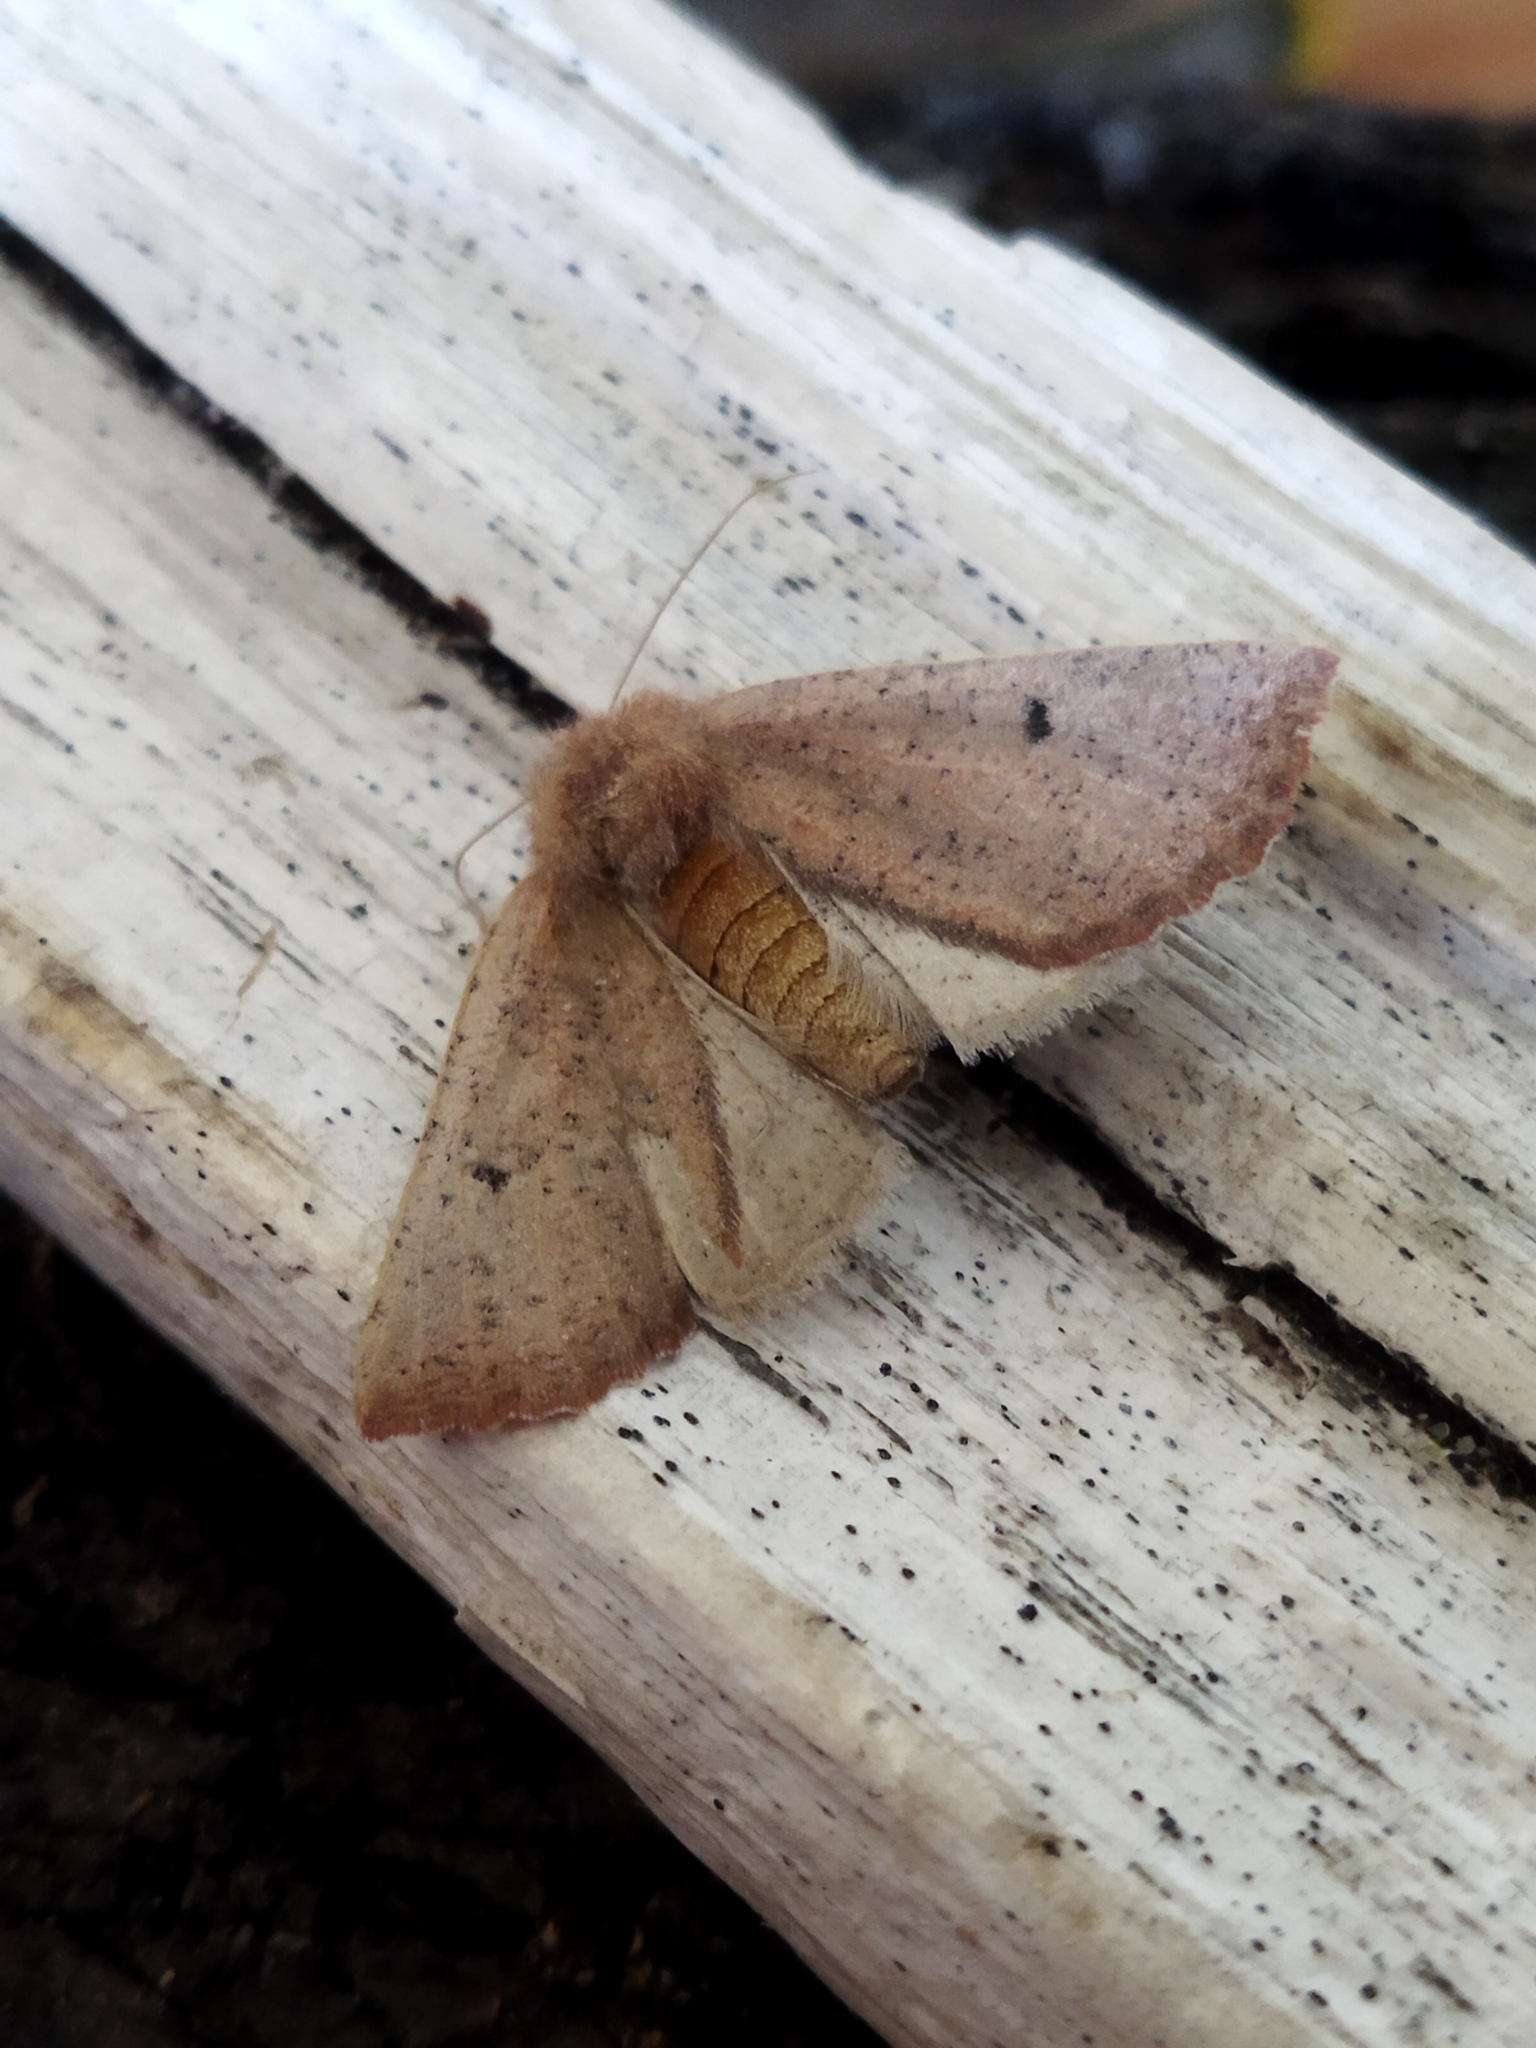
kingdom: Animalia
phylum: Arthropoda
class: Insecta
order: Lepidoptera
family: Geometridae
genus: Dasycorsa
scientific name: Dasycorsa modesta
